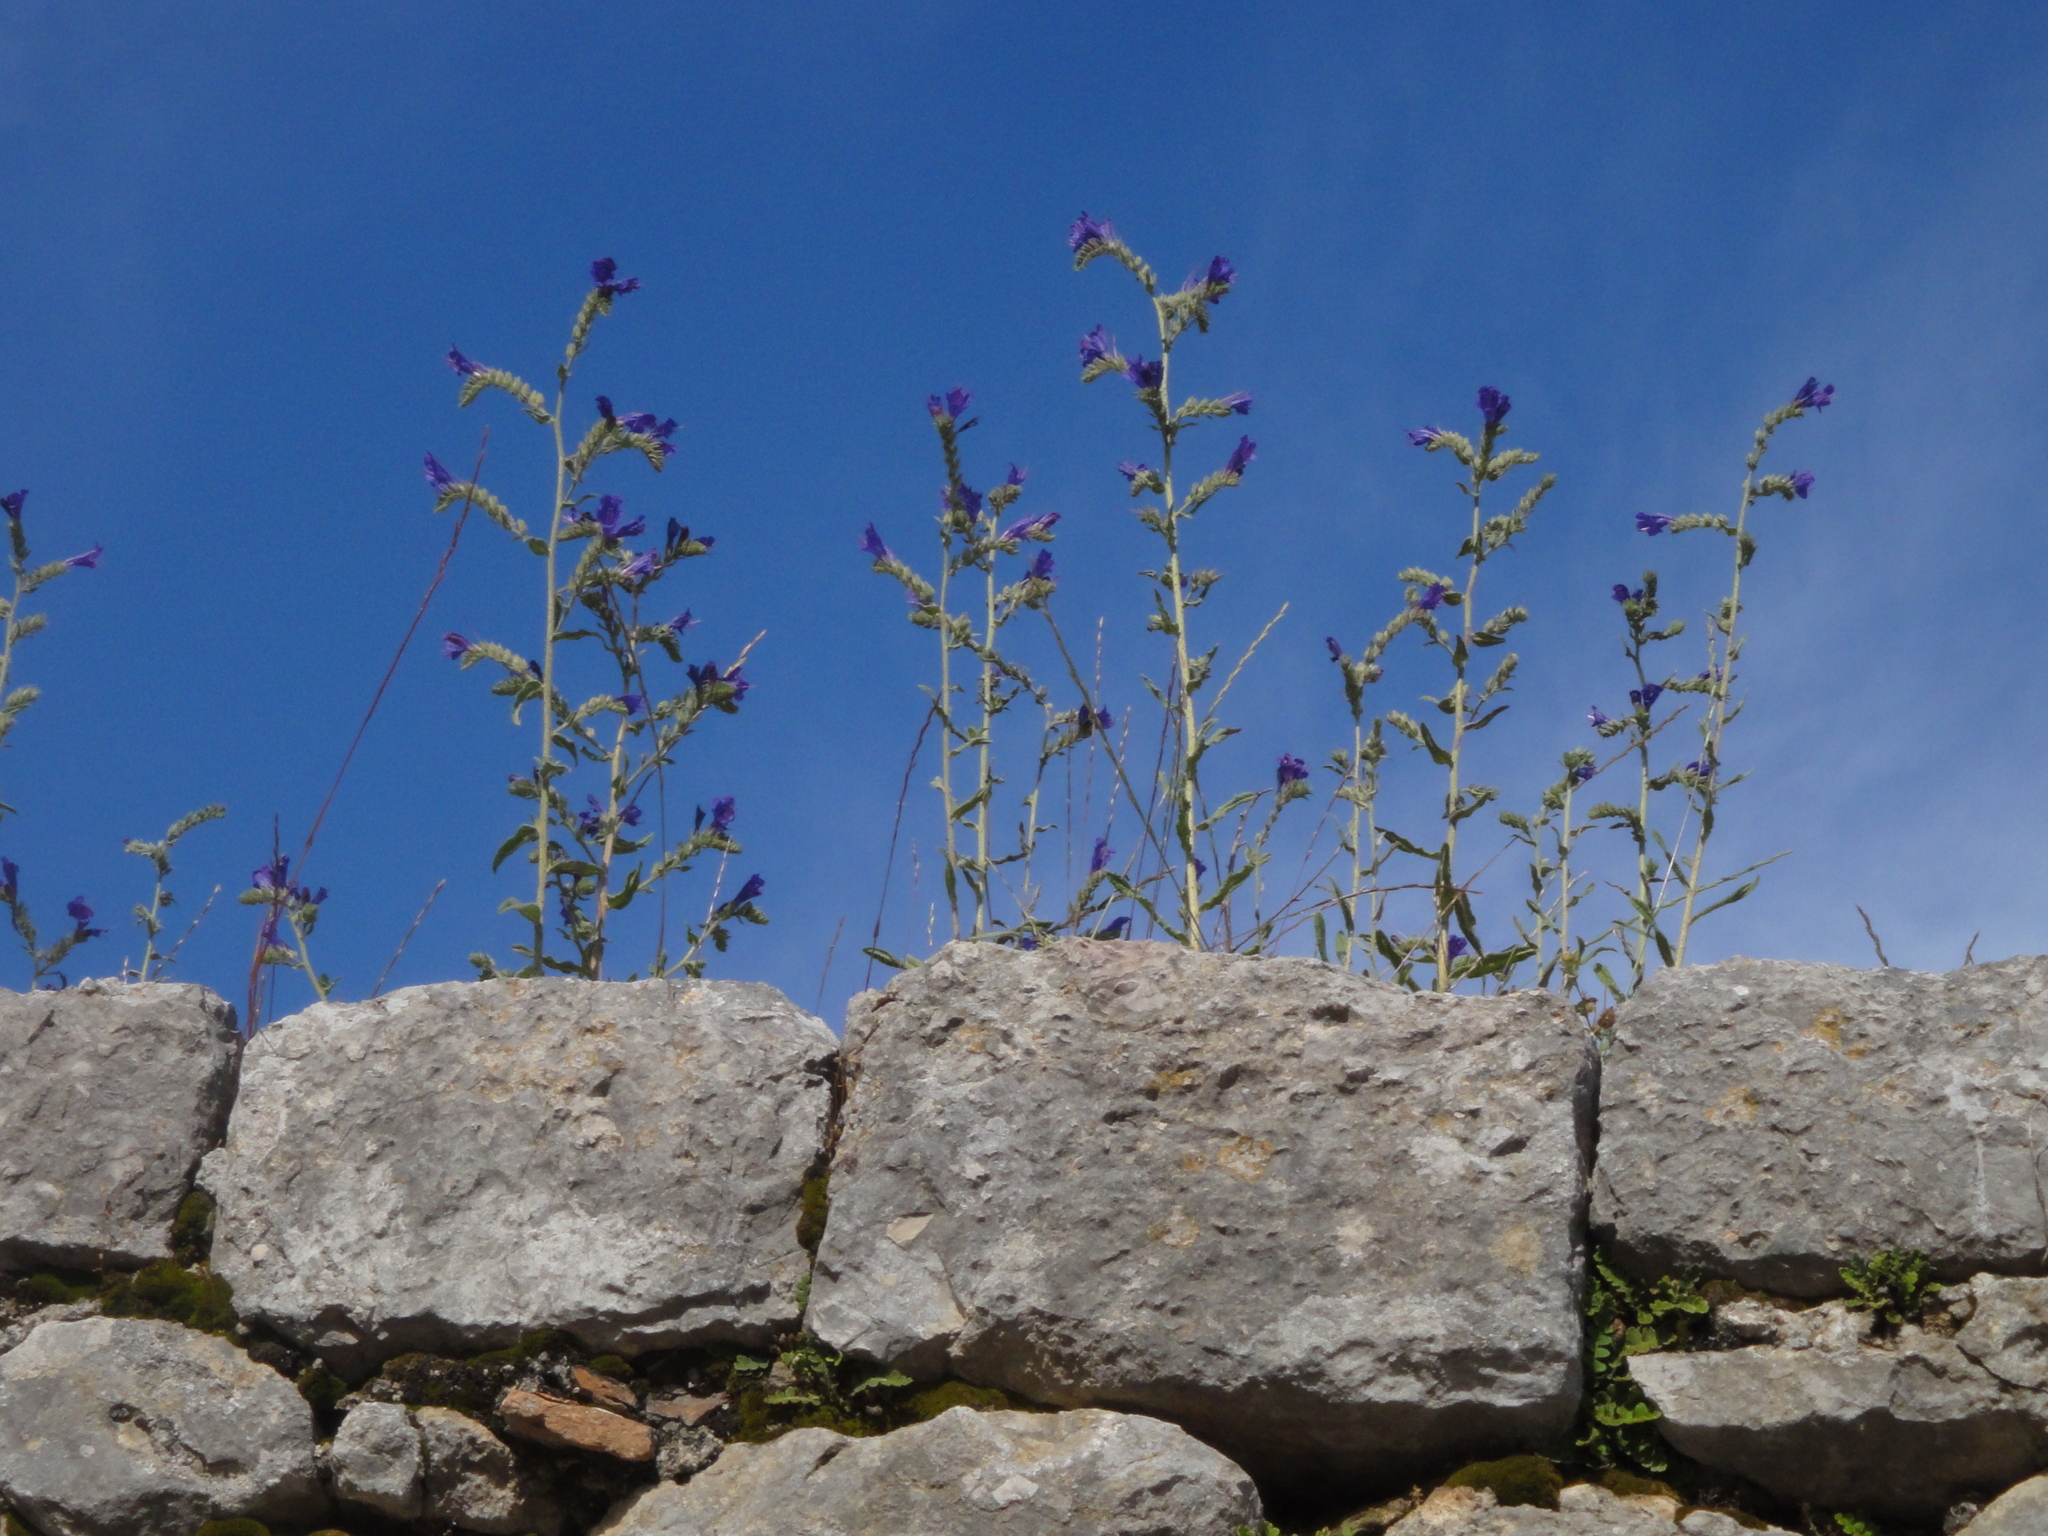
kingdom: Plantae
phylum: Tracheophyta
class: Magnoliopsida
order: Boraginales
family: Boraginaceae
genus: Echium
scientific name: Echium vulgare
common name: Common viper's bugloss
